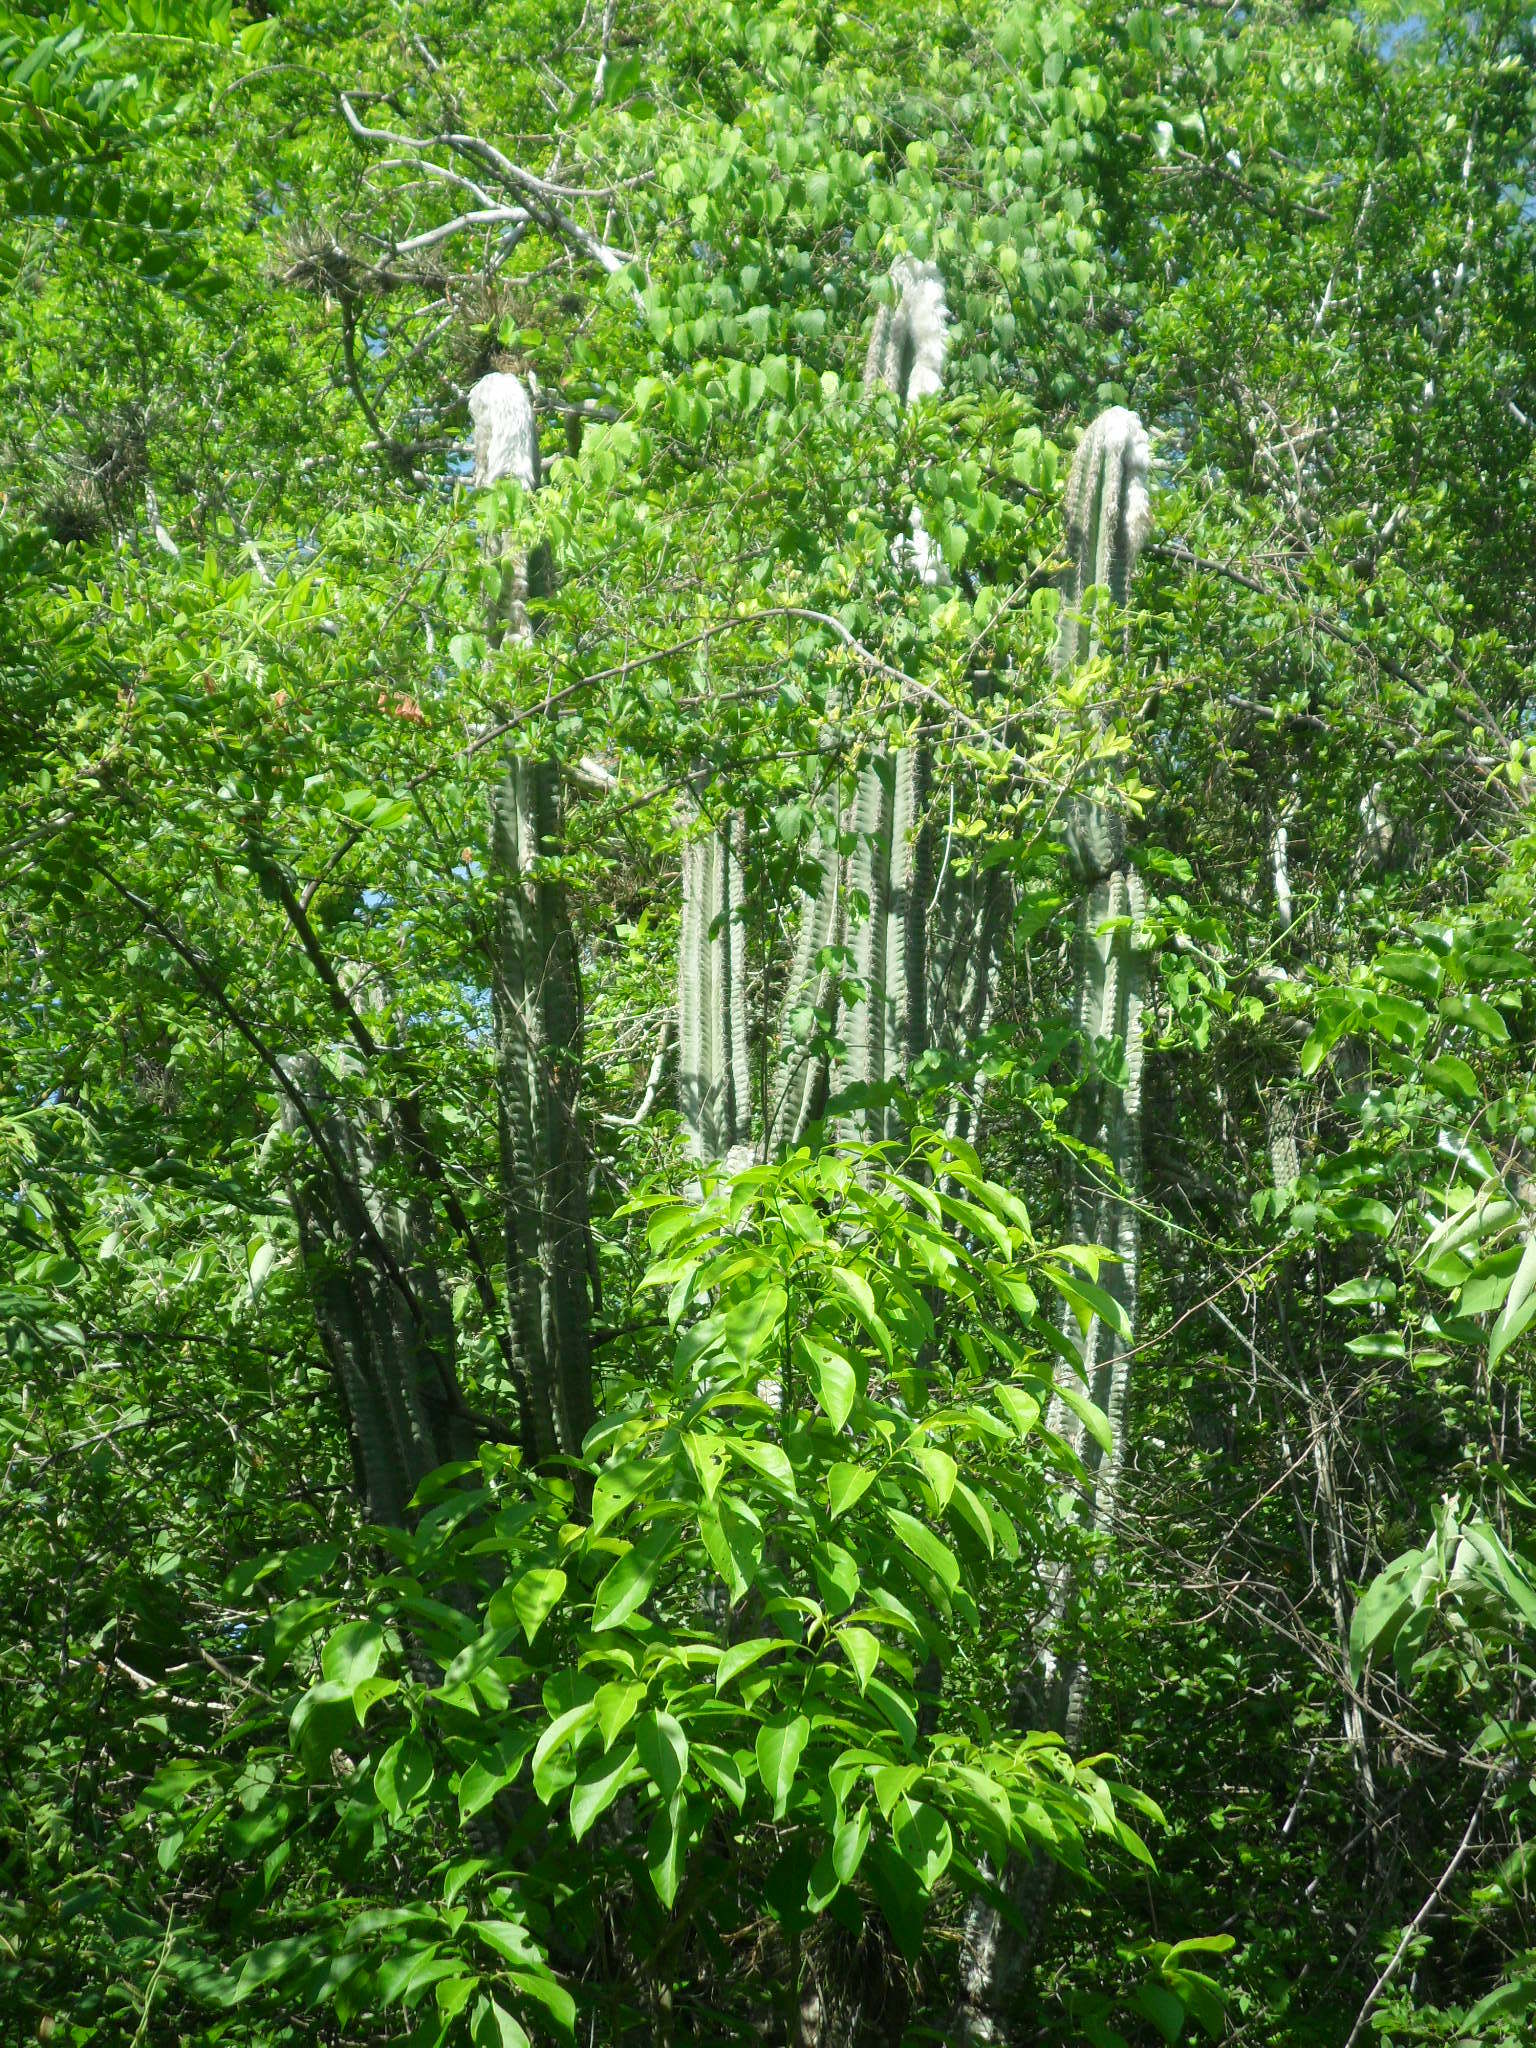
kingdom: Plantae
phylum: Tracheophyta
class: Magnoliopsida
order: Caryophyllales
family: Cactaceae
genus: Pilosocereus
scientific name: Pilosocereus leucocephalus
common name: Old man cactus
